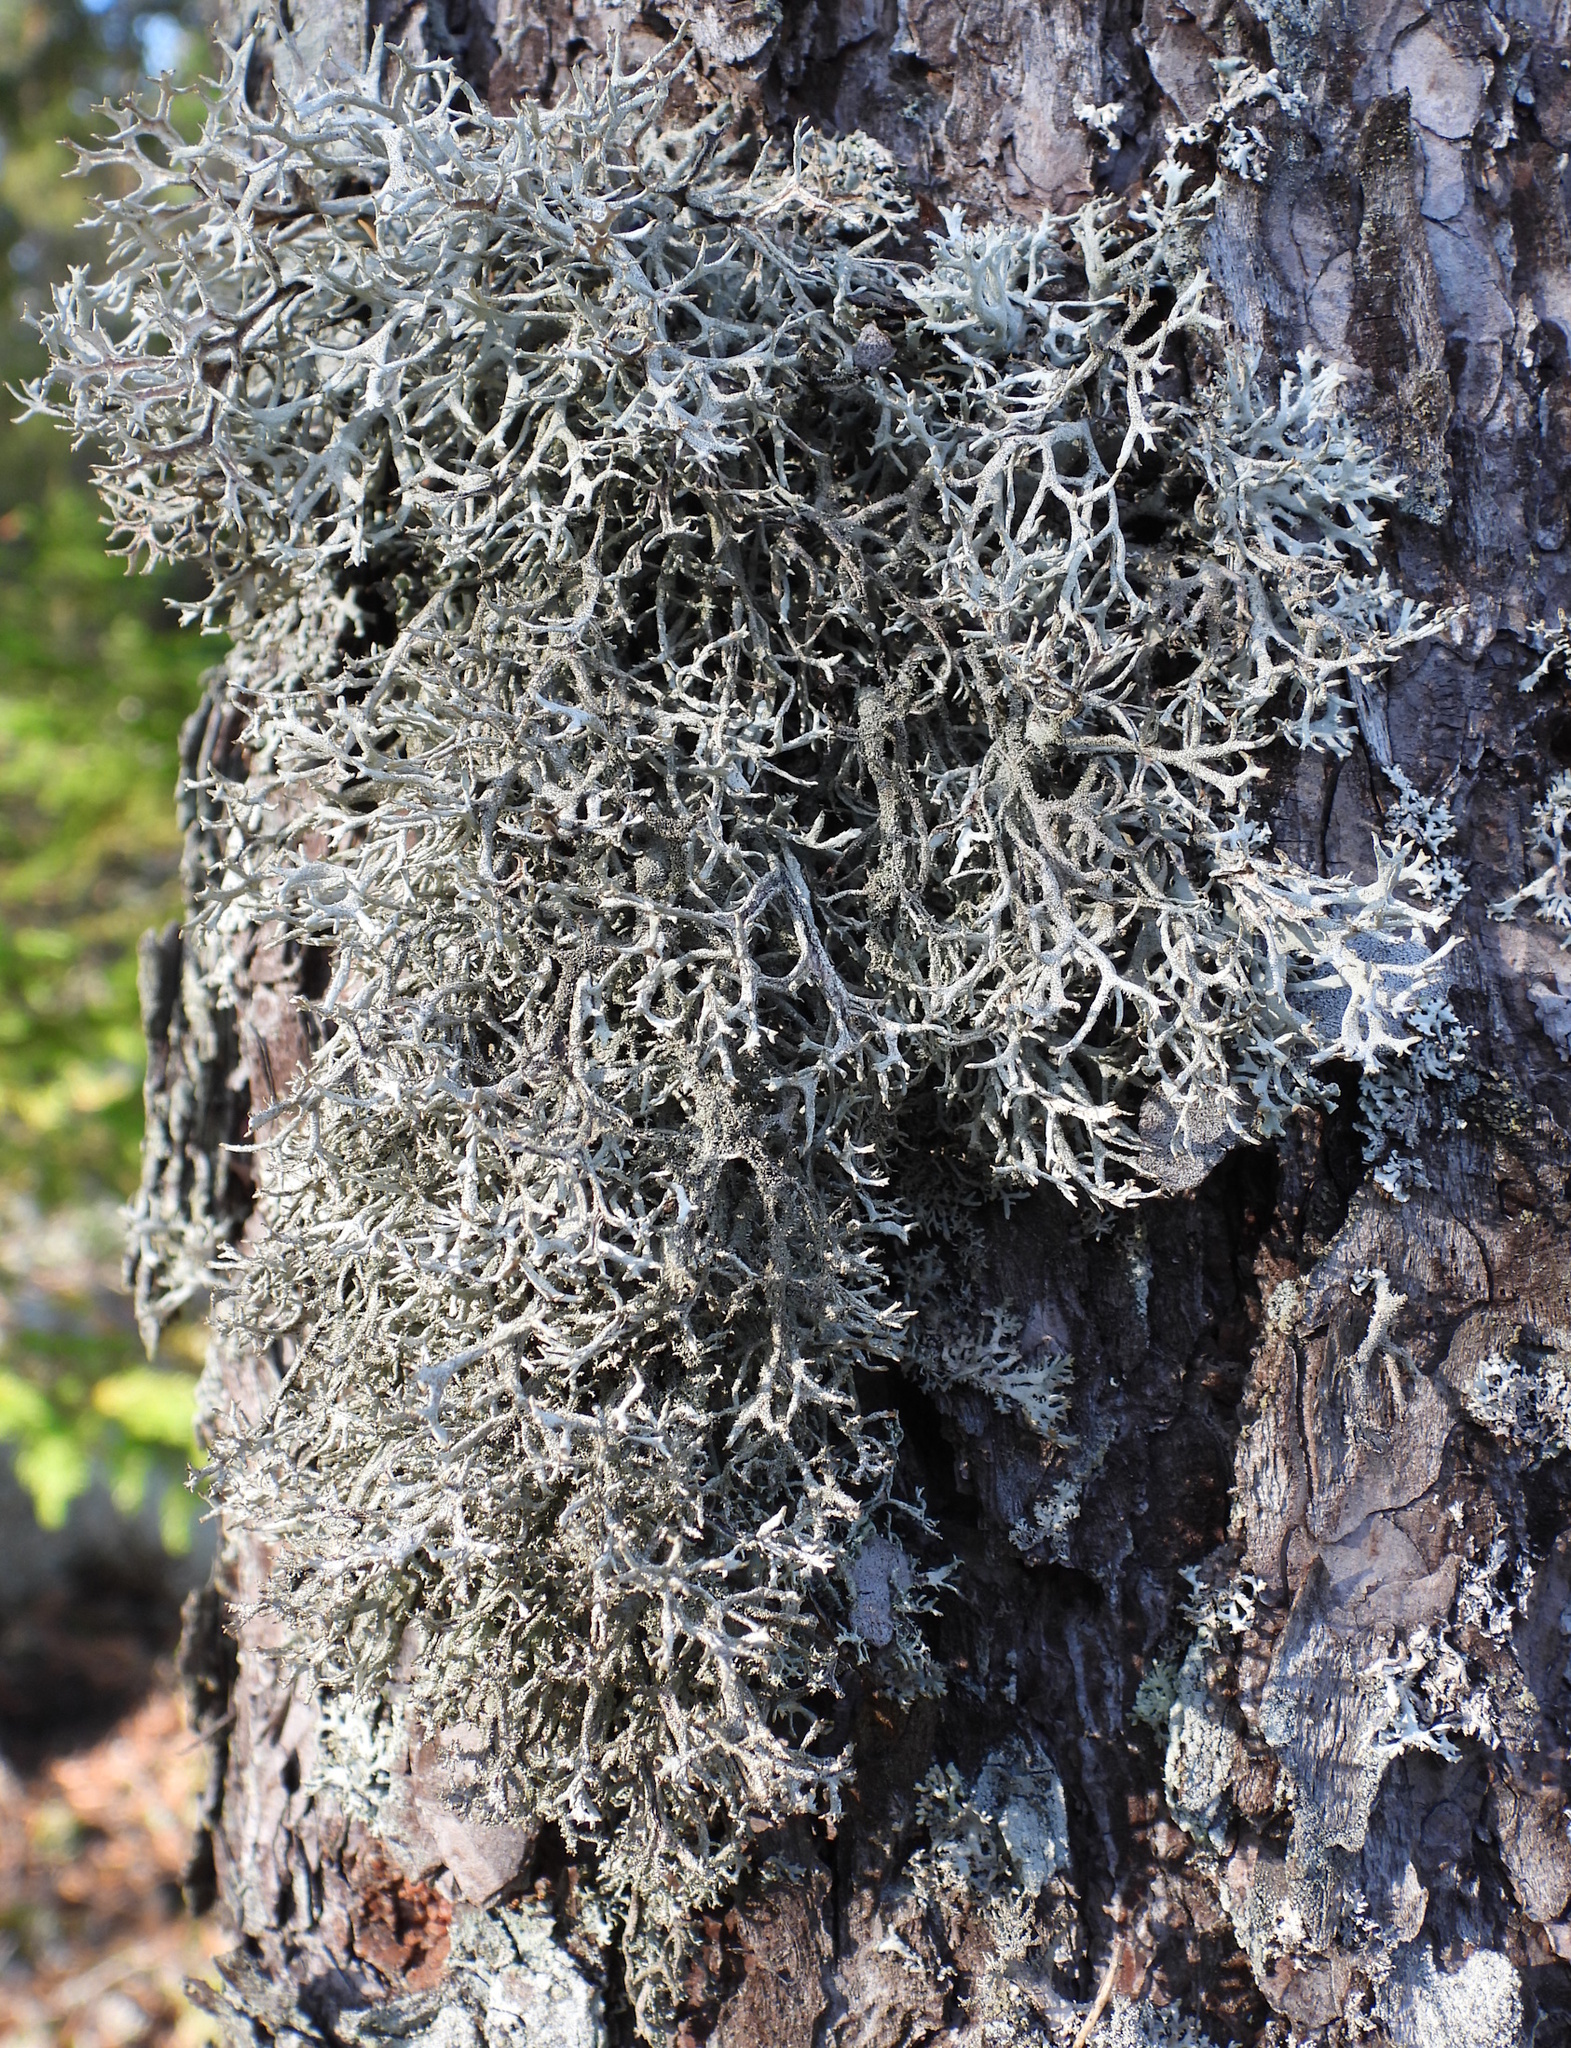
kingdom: Fungi
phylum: Ascomycota
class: Lecanoromycetes
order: Lecanorales
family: Parmeliaceae
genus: Pseudevernia
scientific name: Pseudevernia furfuracea
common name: Tree moss
